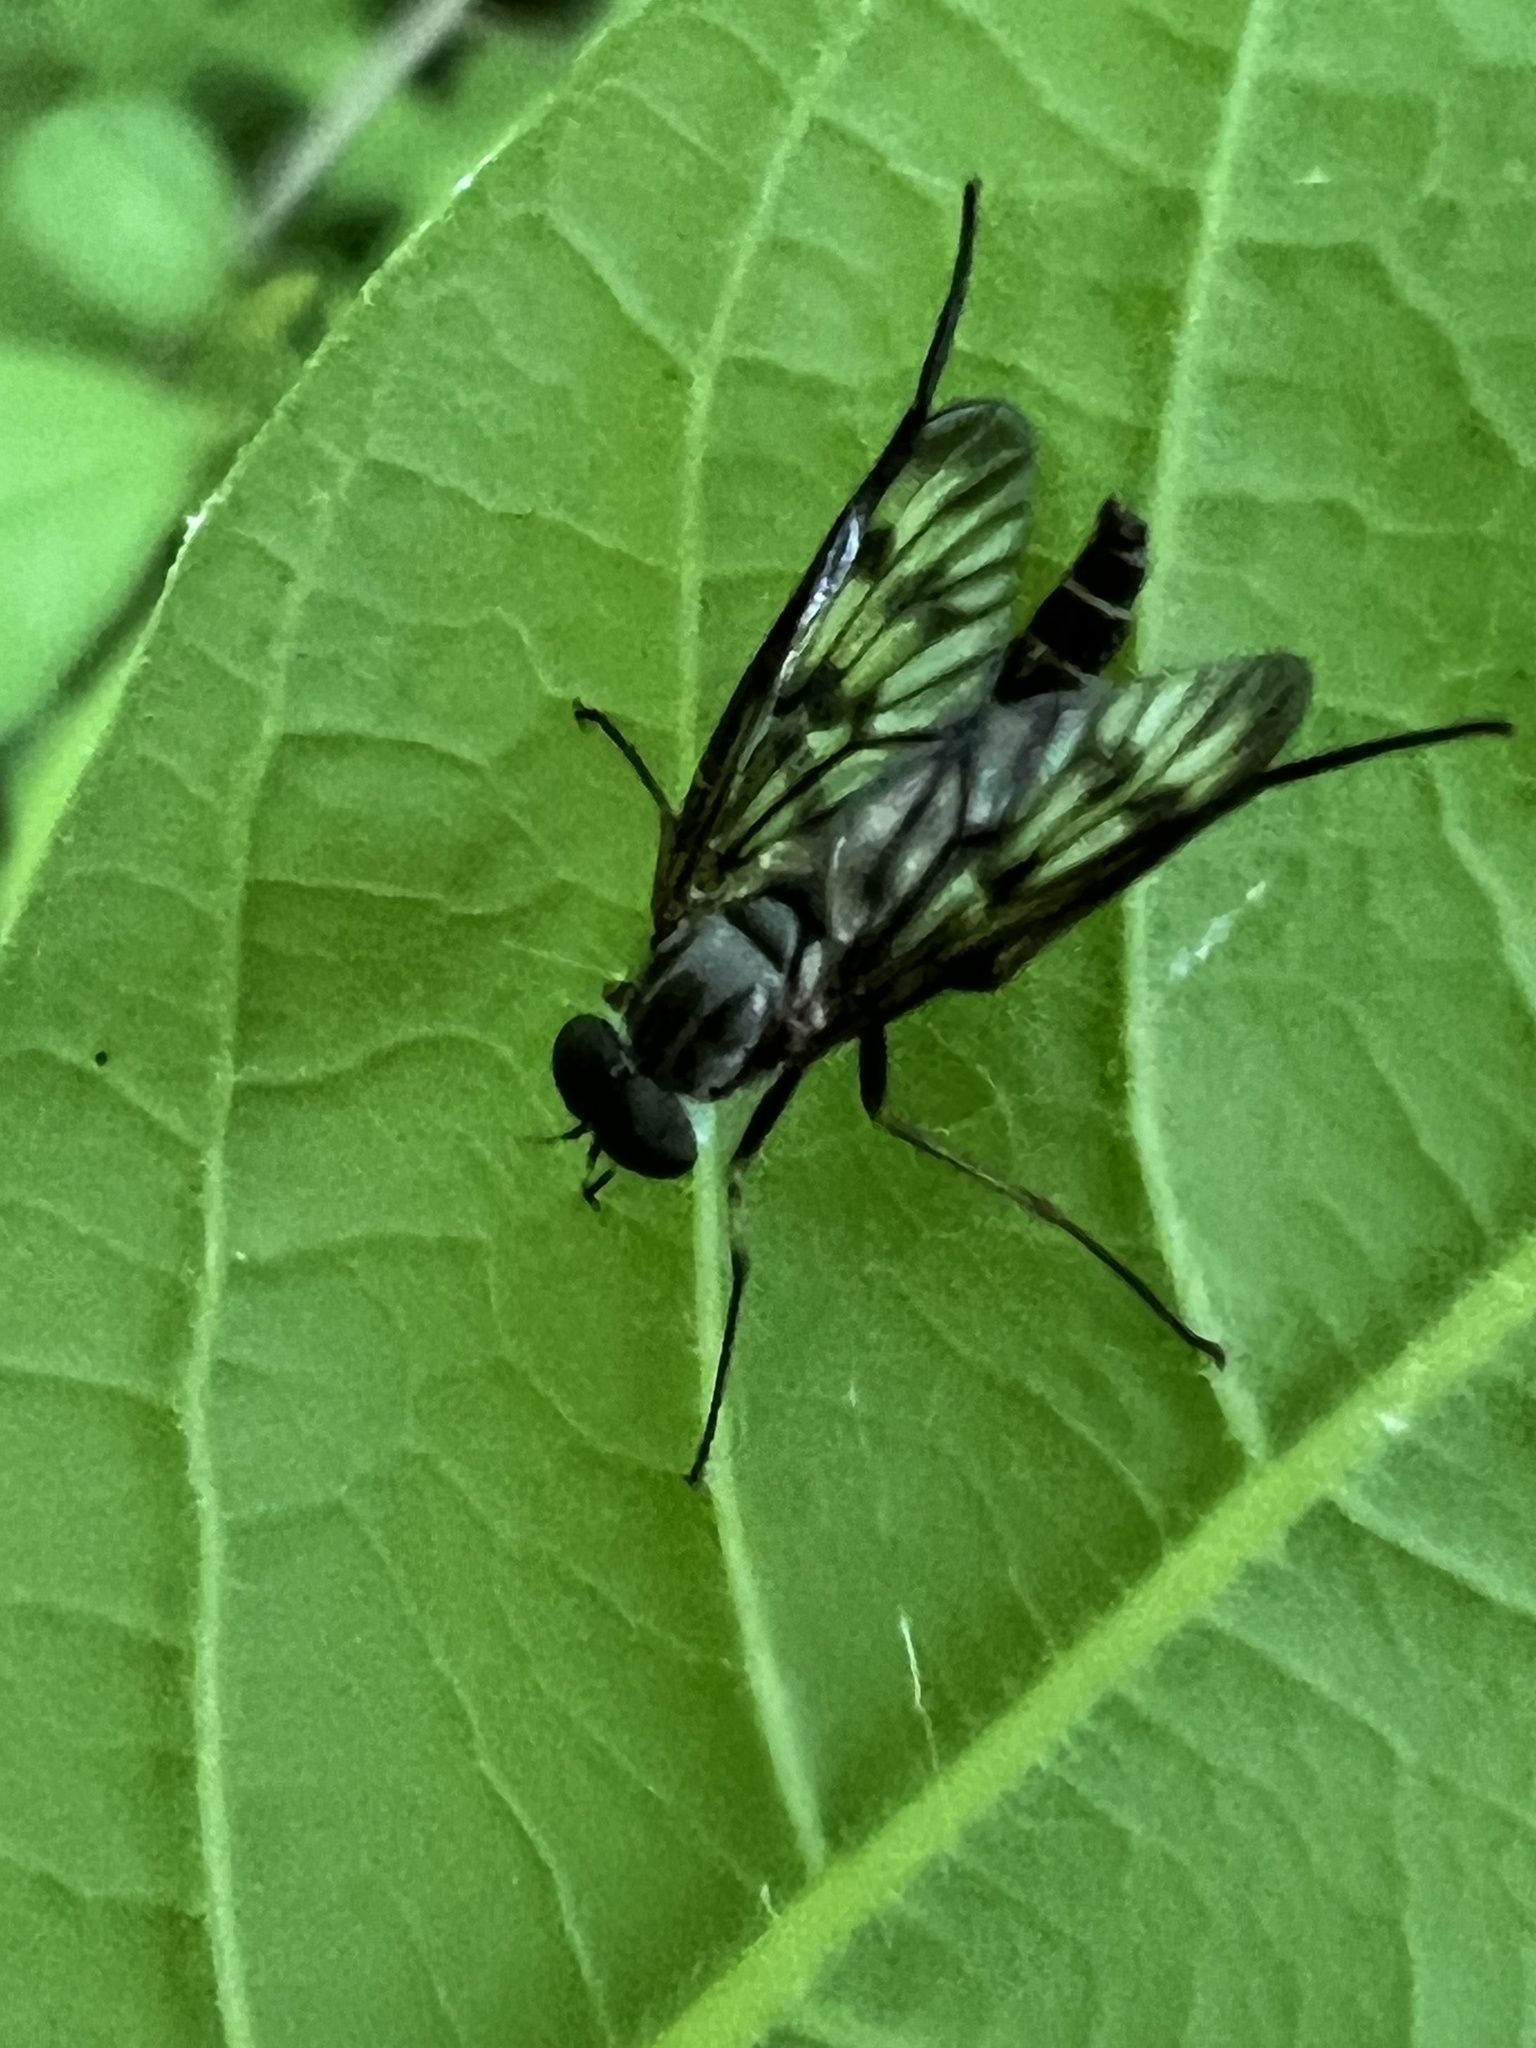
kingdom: Animalia
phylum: Arthropoda
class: Insecta
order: Diptera
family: Rhagionidae
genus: Rhagio
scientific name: Rhagio mystaceus
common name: Common snipe fly
